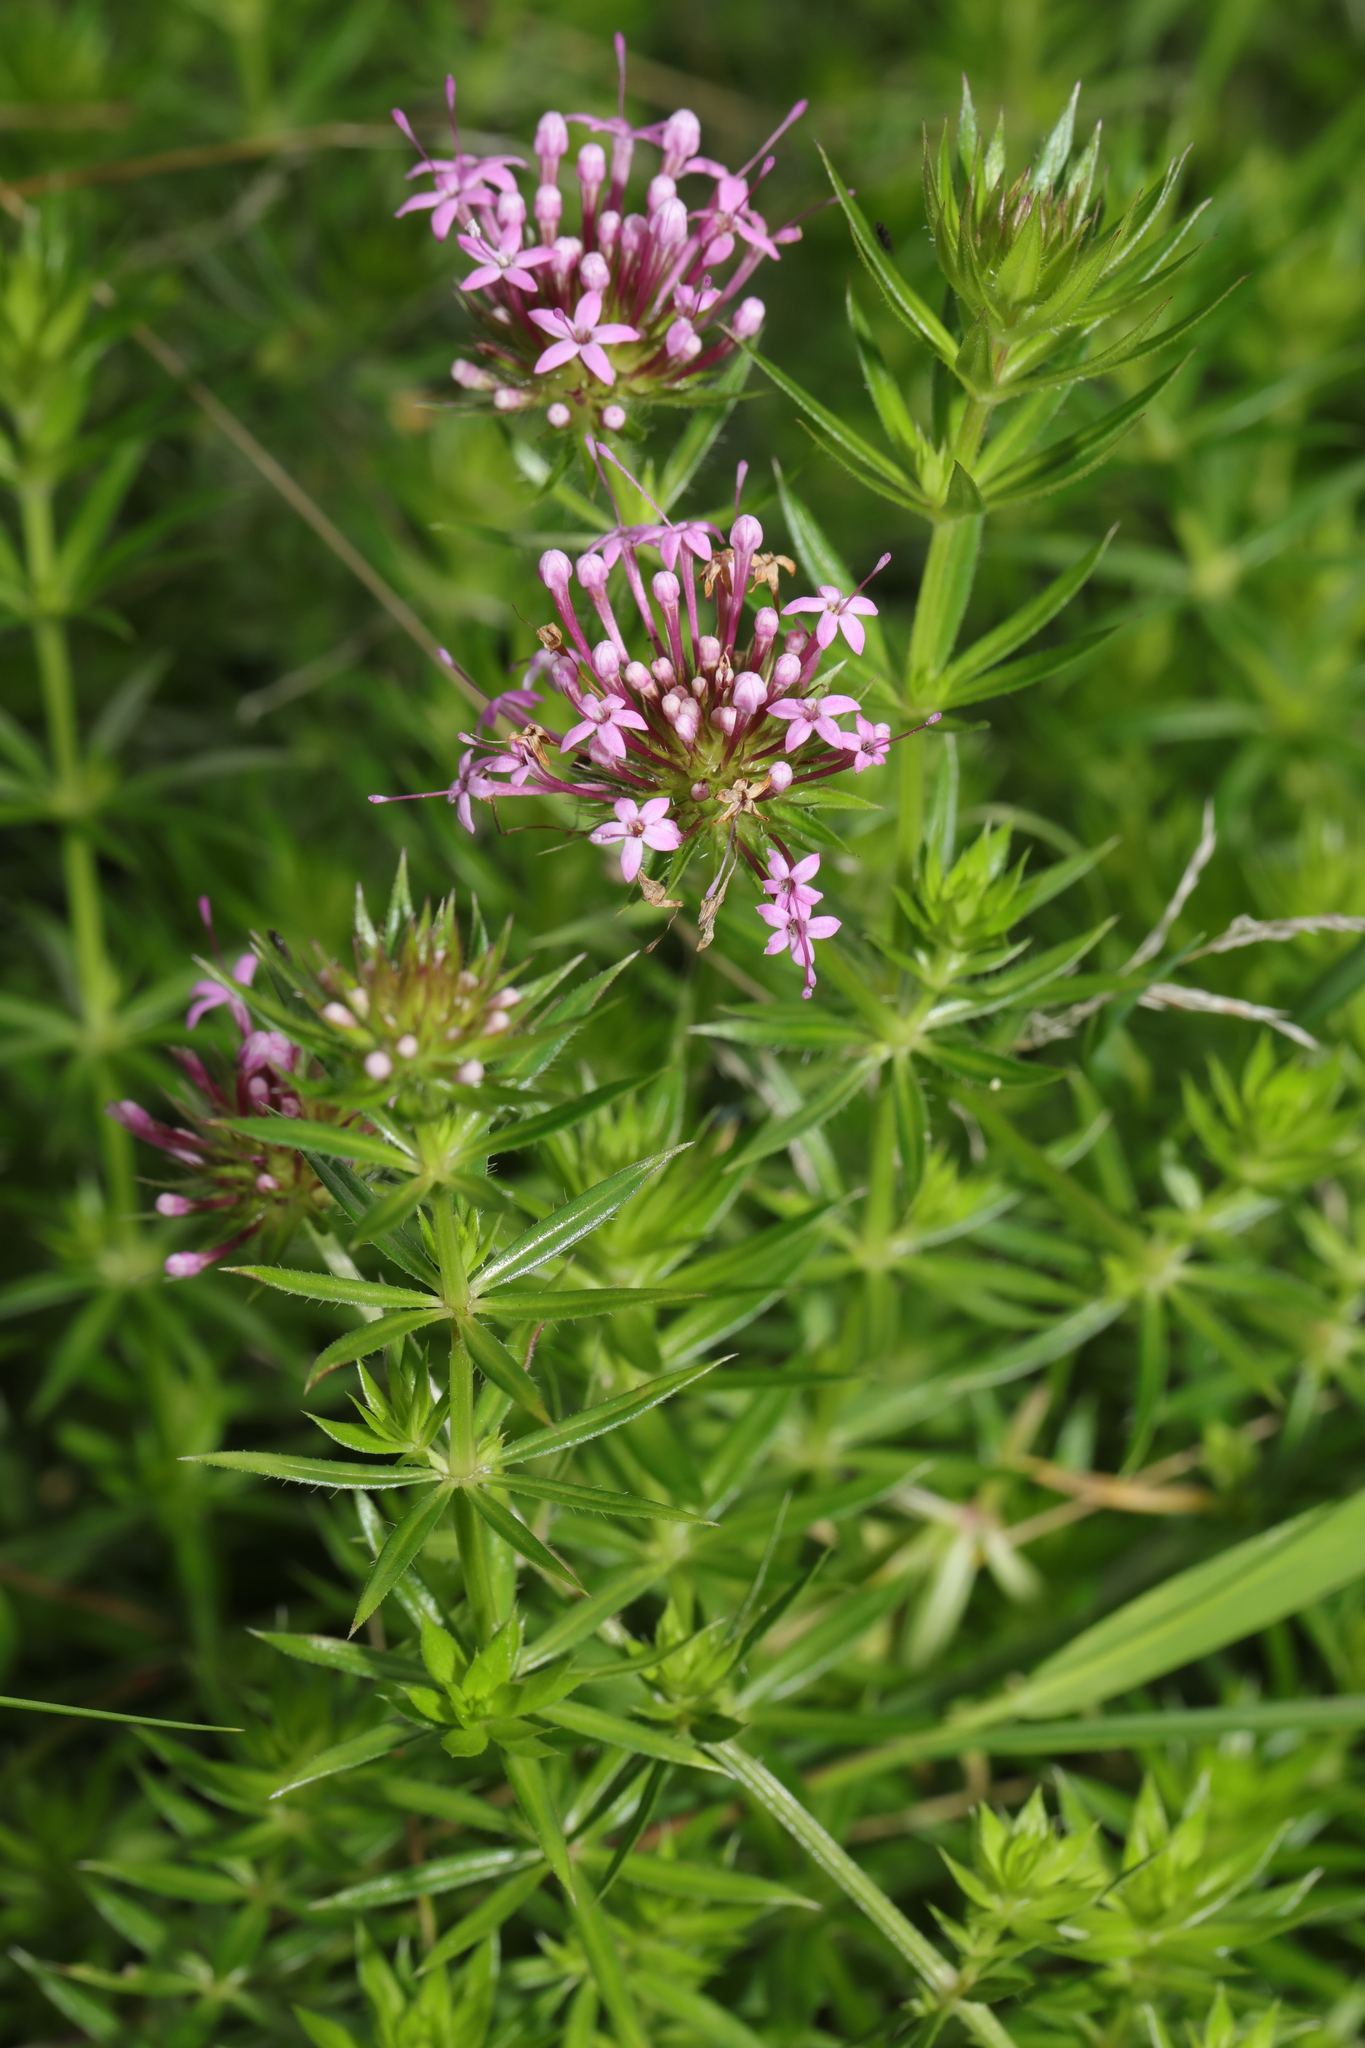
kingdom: Plantae
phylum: Tracheophyta
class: Magnoliopsida
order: Gentianales
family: Rubiaceae
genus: Phuopsis
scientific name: Phuopsis stylosa
